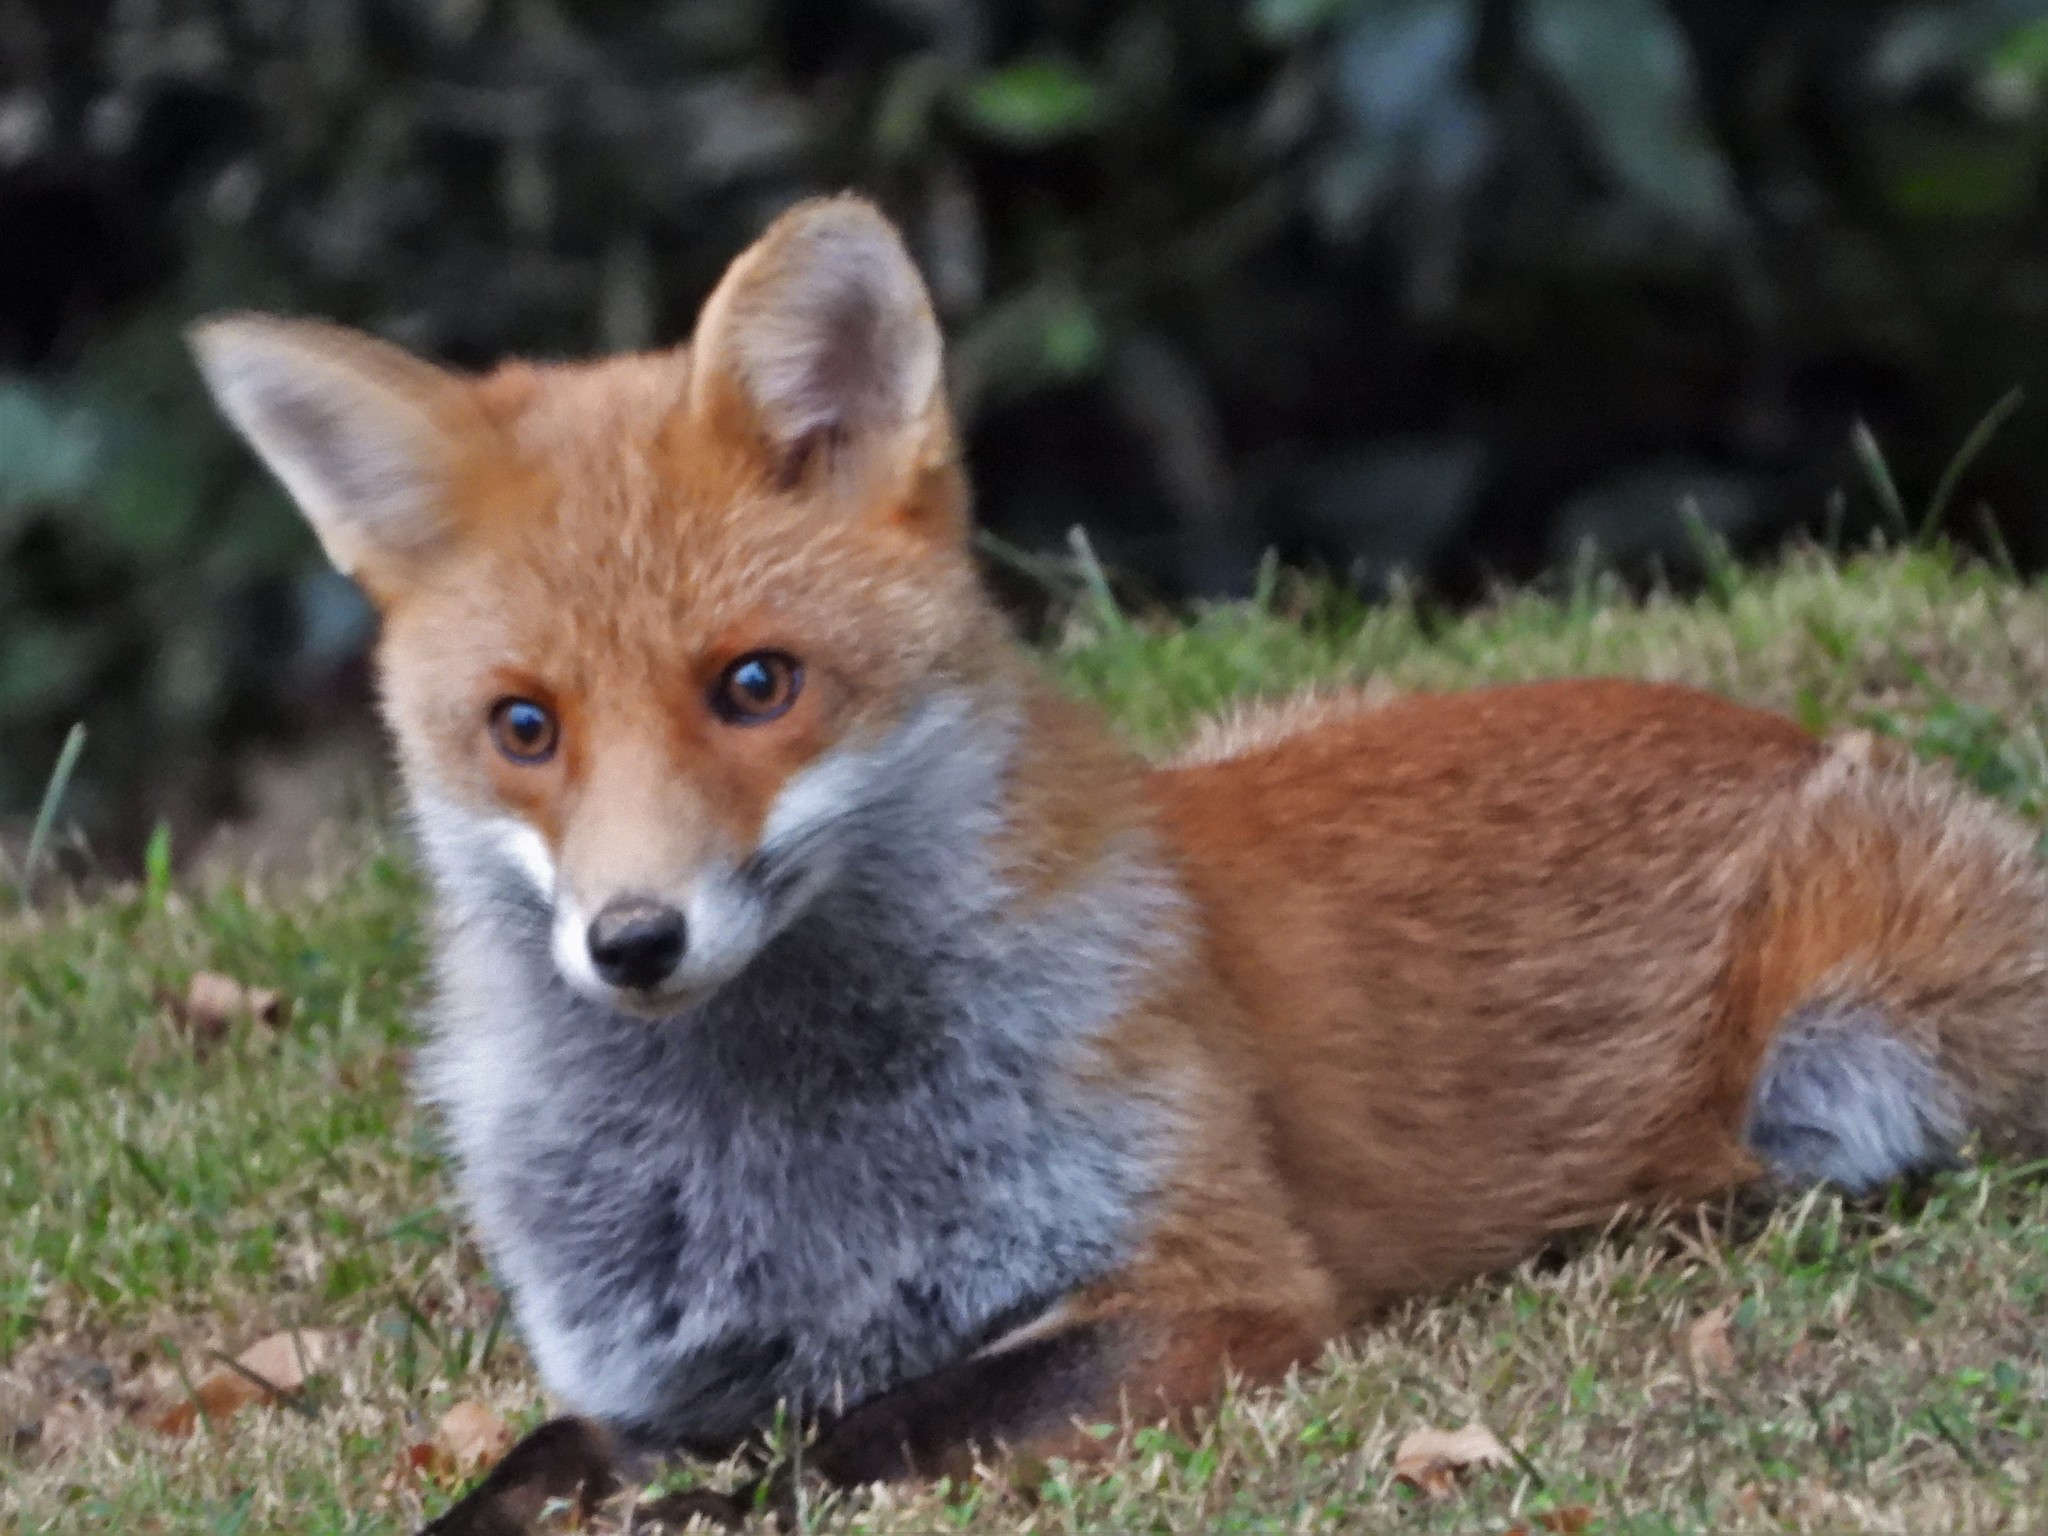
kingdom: Animalia
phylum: Chordata
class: Mammalia
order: Carnivora
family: Canidae
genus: Vulpes
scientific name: Vulpes vulpes
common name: Red fox
